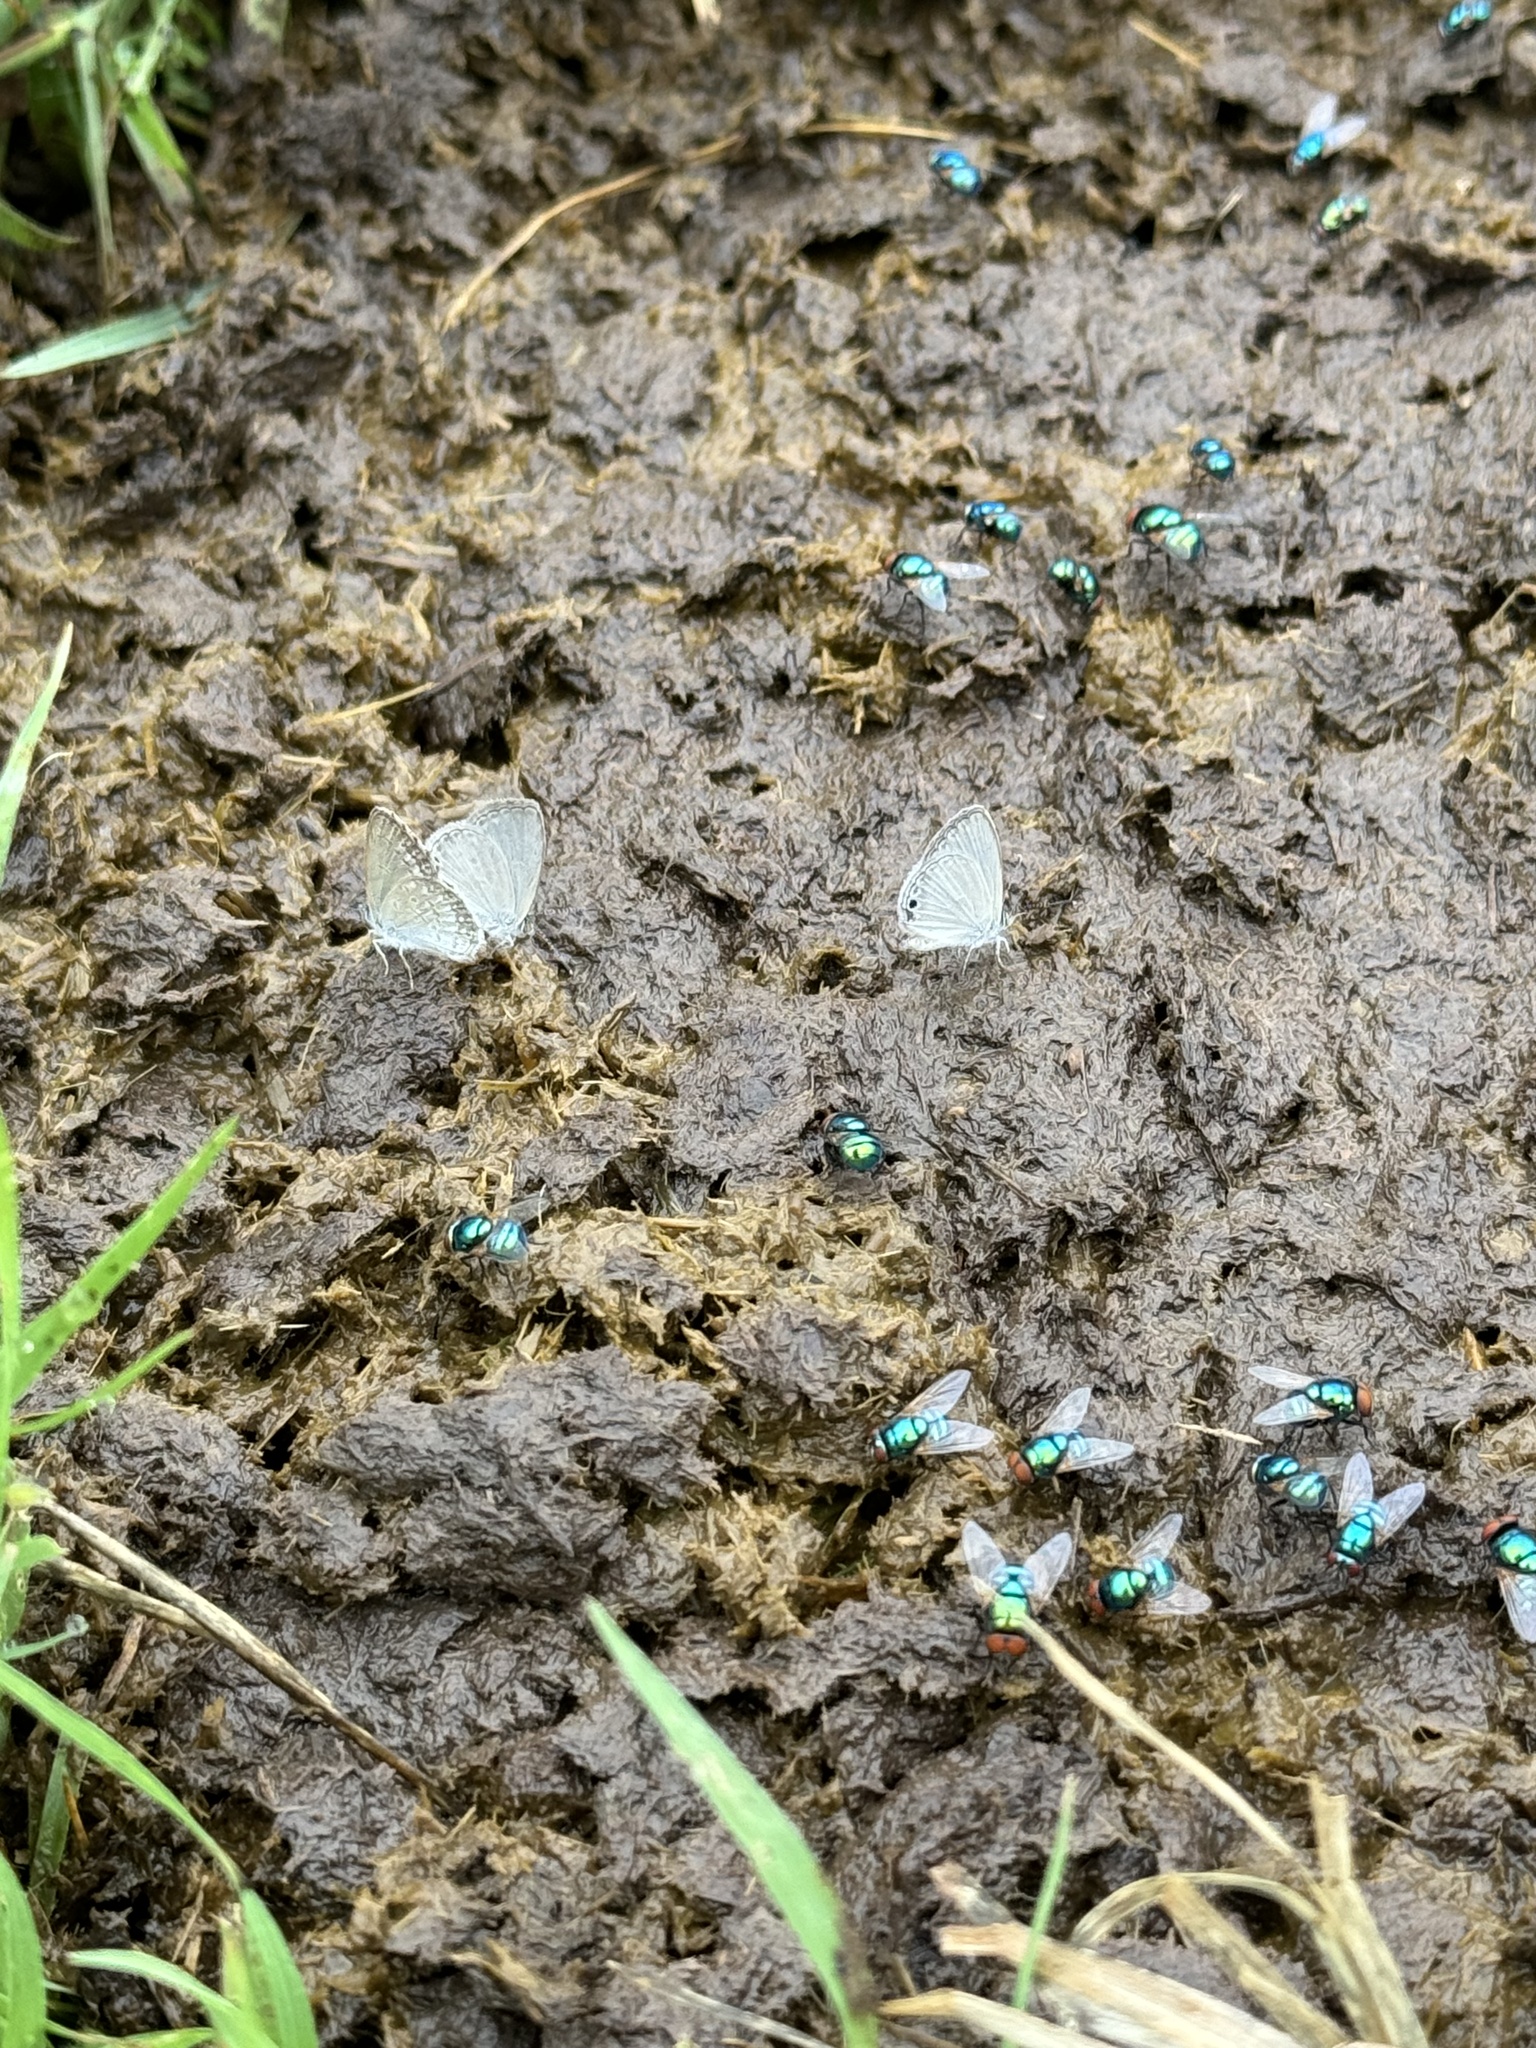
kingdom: Animalia
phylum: Arthropoda
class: Insecta
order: Lepidoptera
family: Lycaenidae
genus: Zizina
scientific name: Zizina labradus
